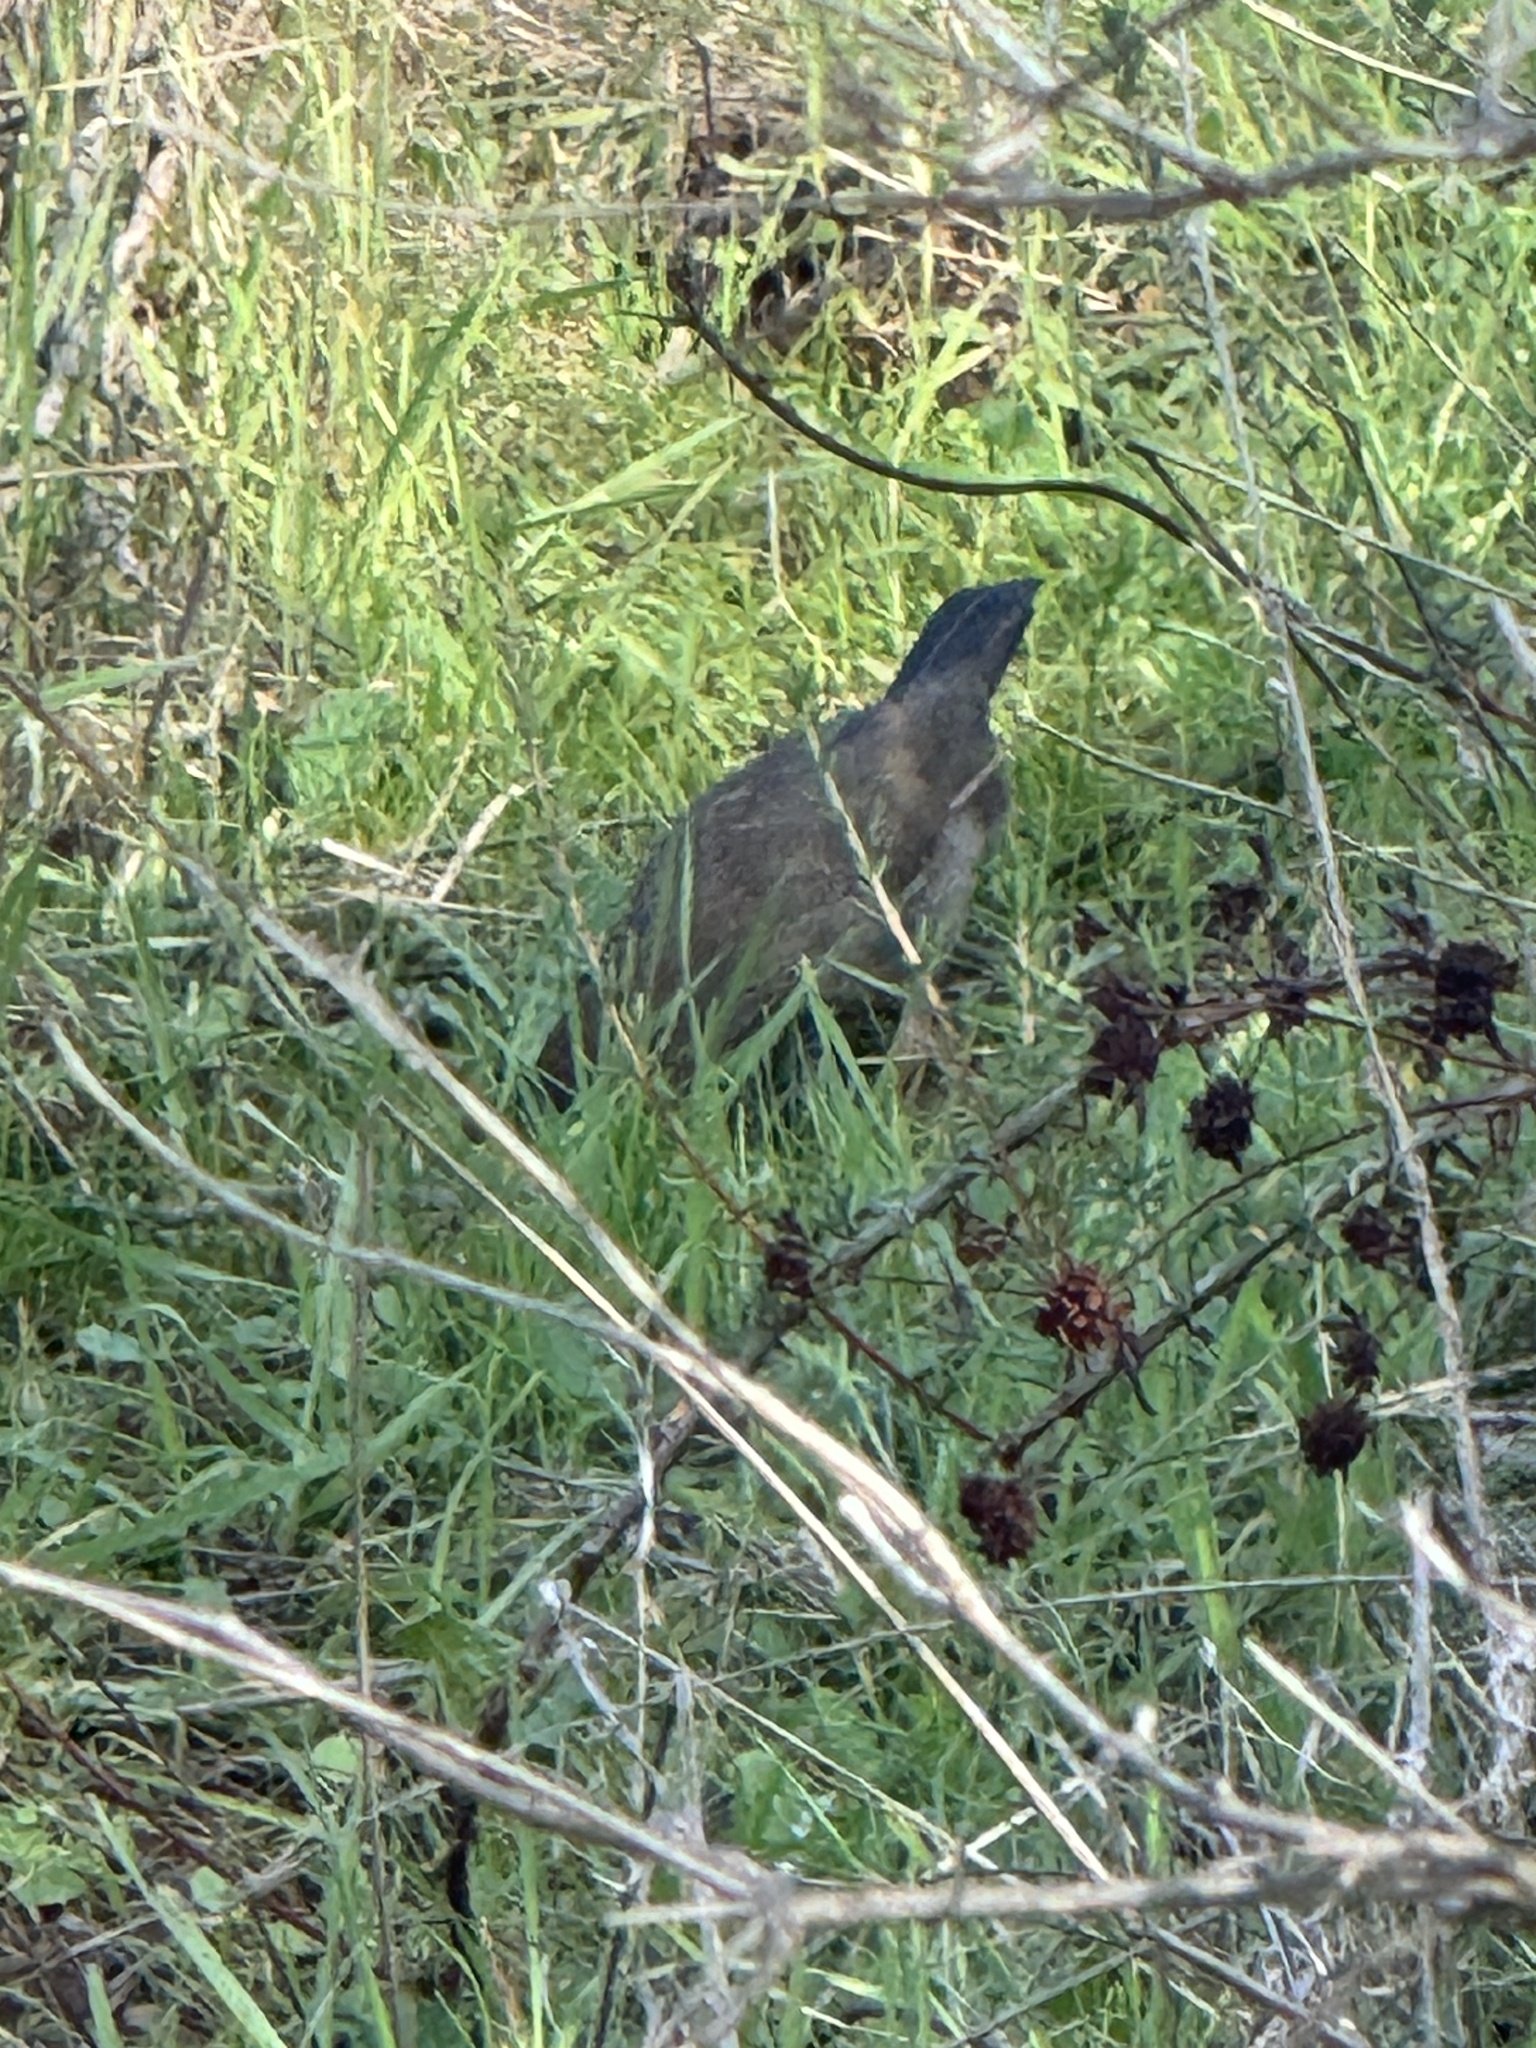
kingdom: Animalia
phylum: Chordata
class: Aves
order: Passeriformes
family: Passerellidae
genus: Melozone
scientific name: Melozone crissalis
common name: California towhee
